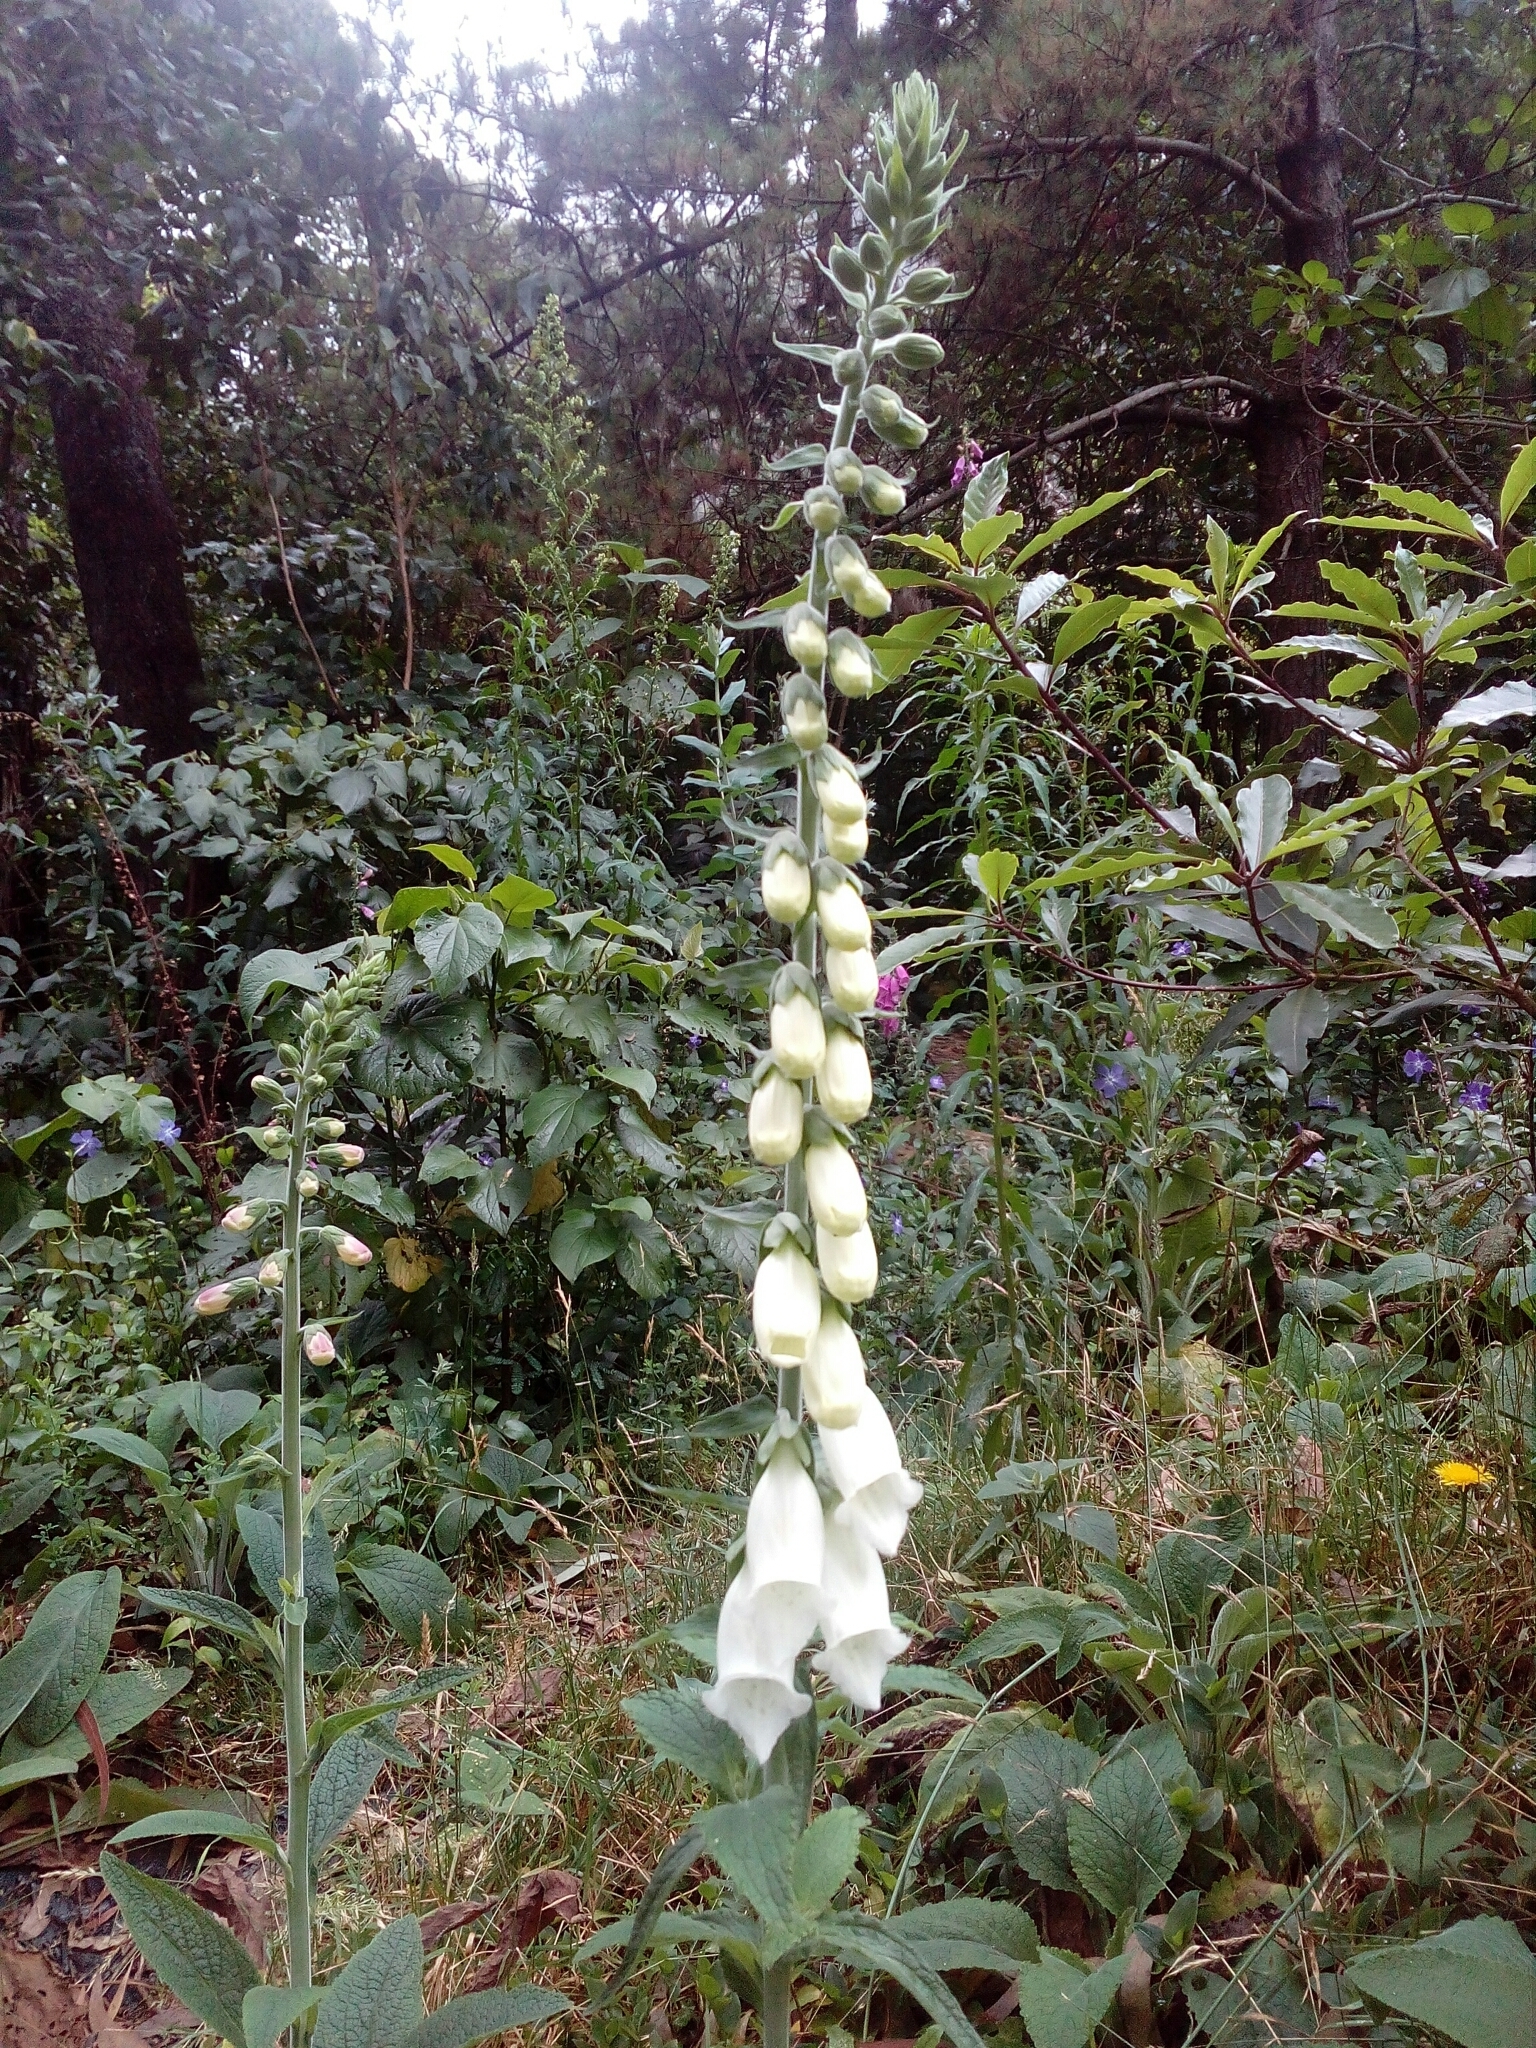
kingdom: Plantae
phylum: Tracheophyta
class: Magnoliopsida
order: Lamiales
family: Plantaginaceae
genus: Digitalis
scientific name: Digitalis purpurea
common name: Foxglove
